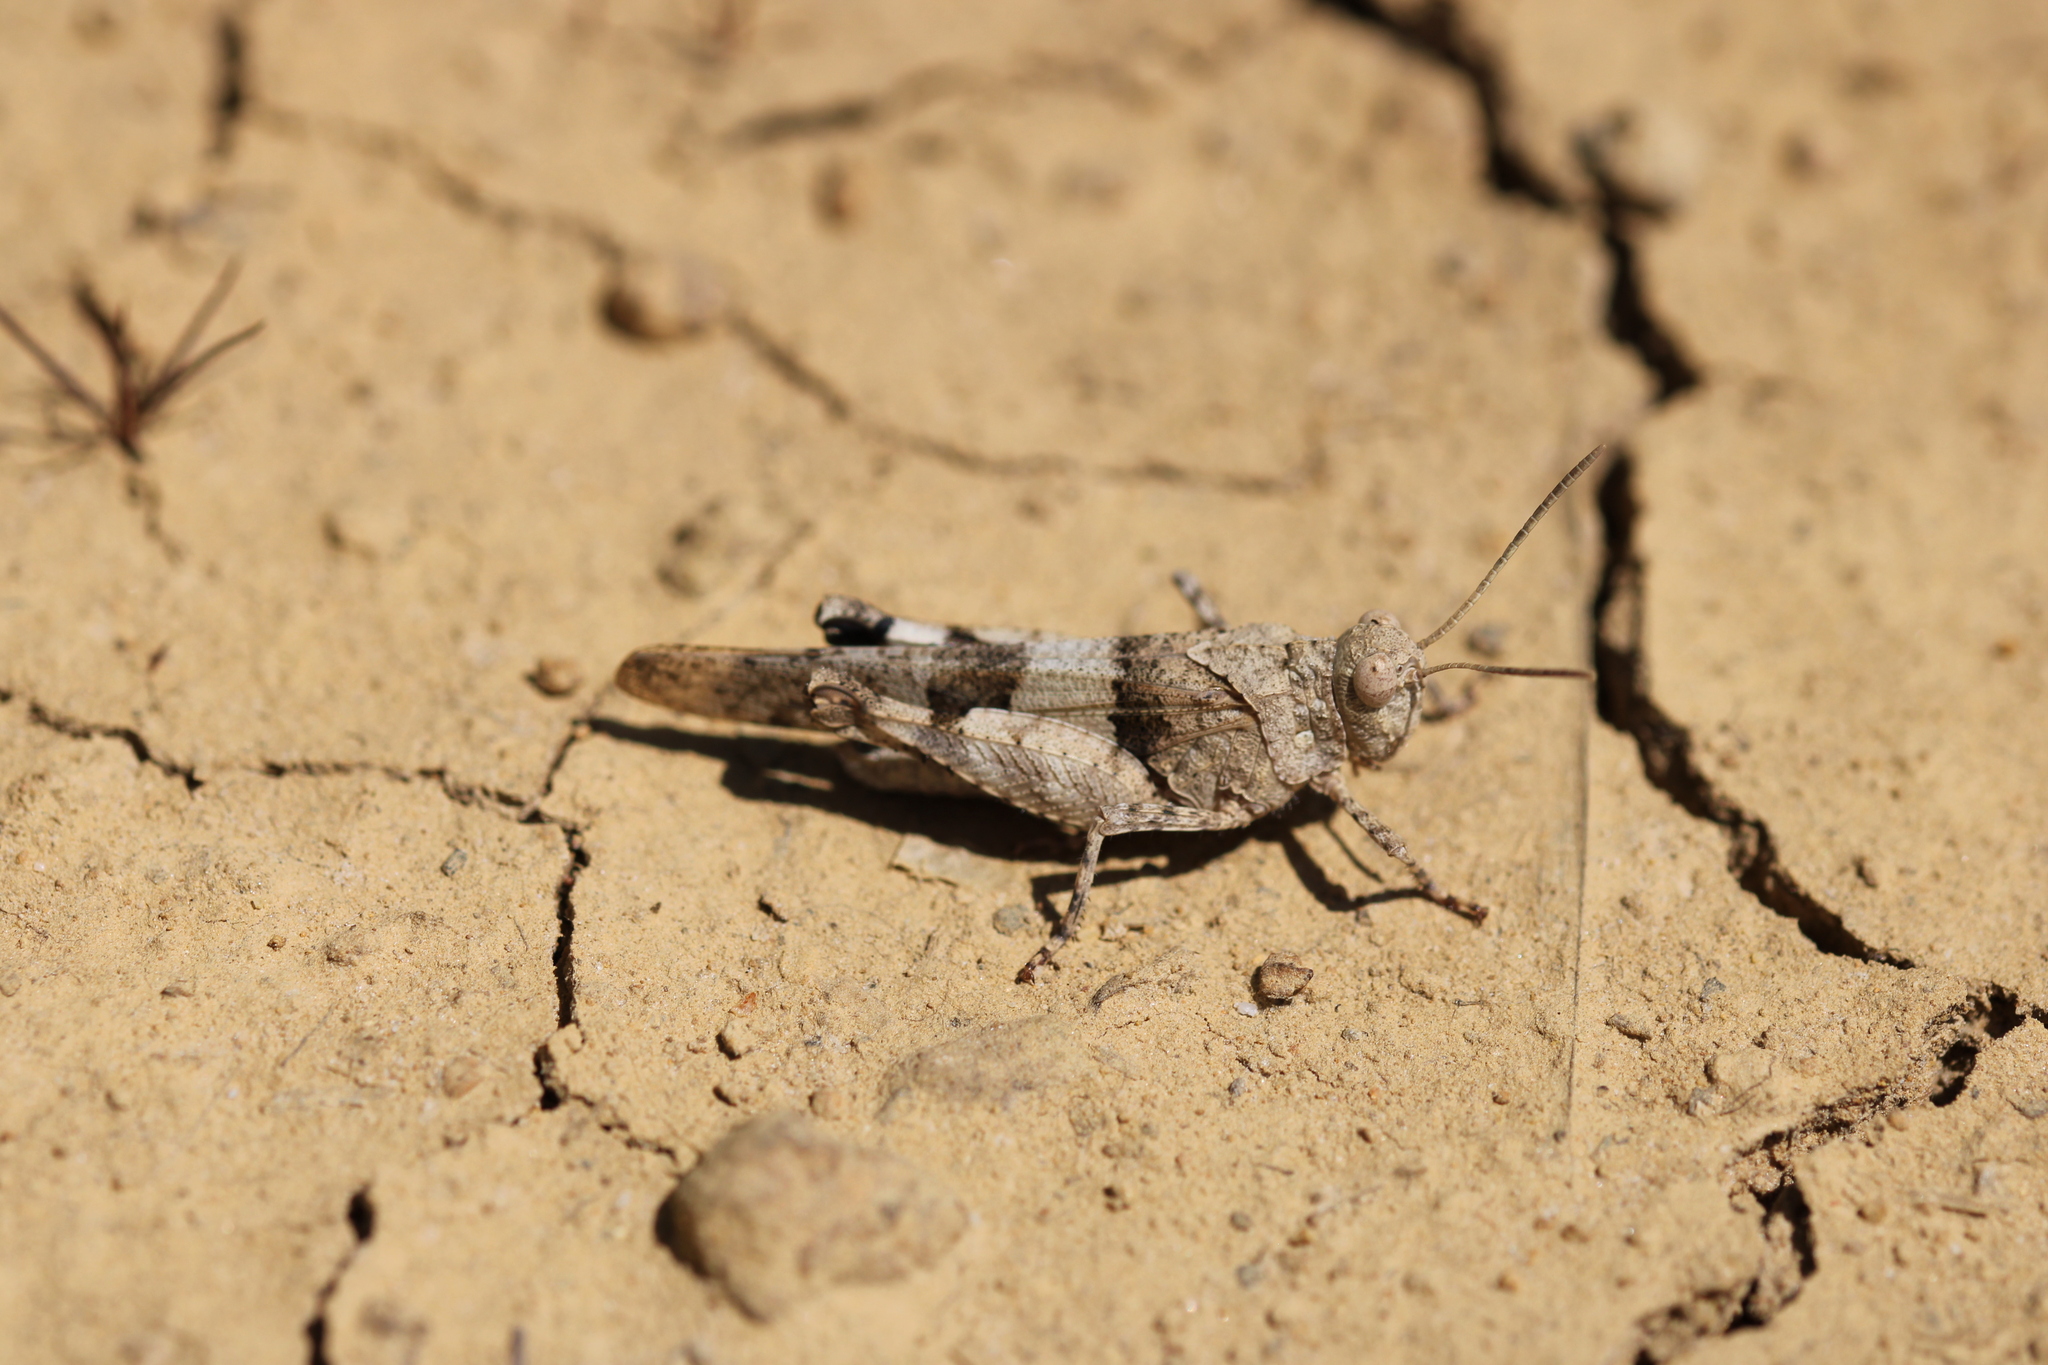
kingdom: Animalia
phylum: Arthropoda
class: Insecta
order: Orthoptera
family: Acrididae
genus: Oedipoda
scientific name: Oedipoda caerulescens
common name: Blue-winged grasshopper
